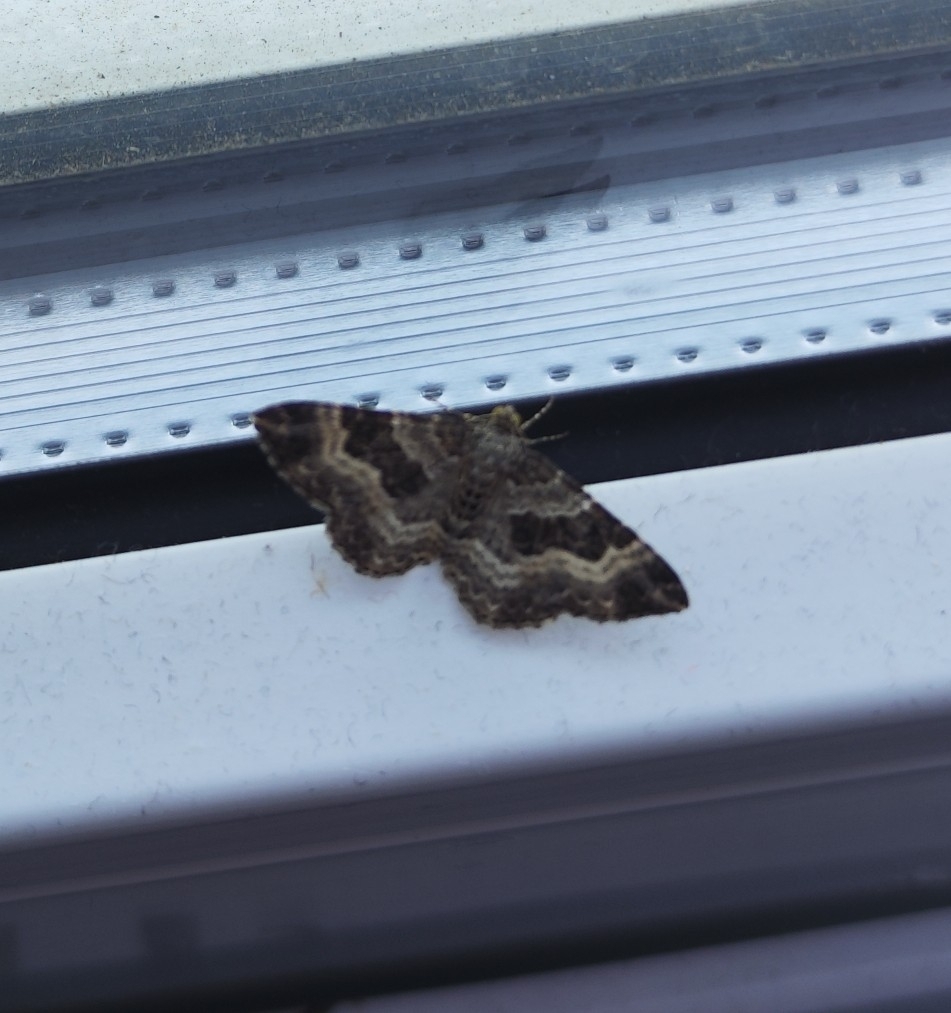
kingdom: Animalia
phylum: Arthropoda
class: Insecta
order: Lepidoptera
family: Geometridae
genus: Epirrhoe
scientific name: Epirrhoe alternata
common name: Common carpet
